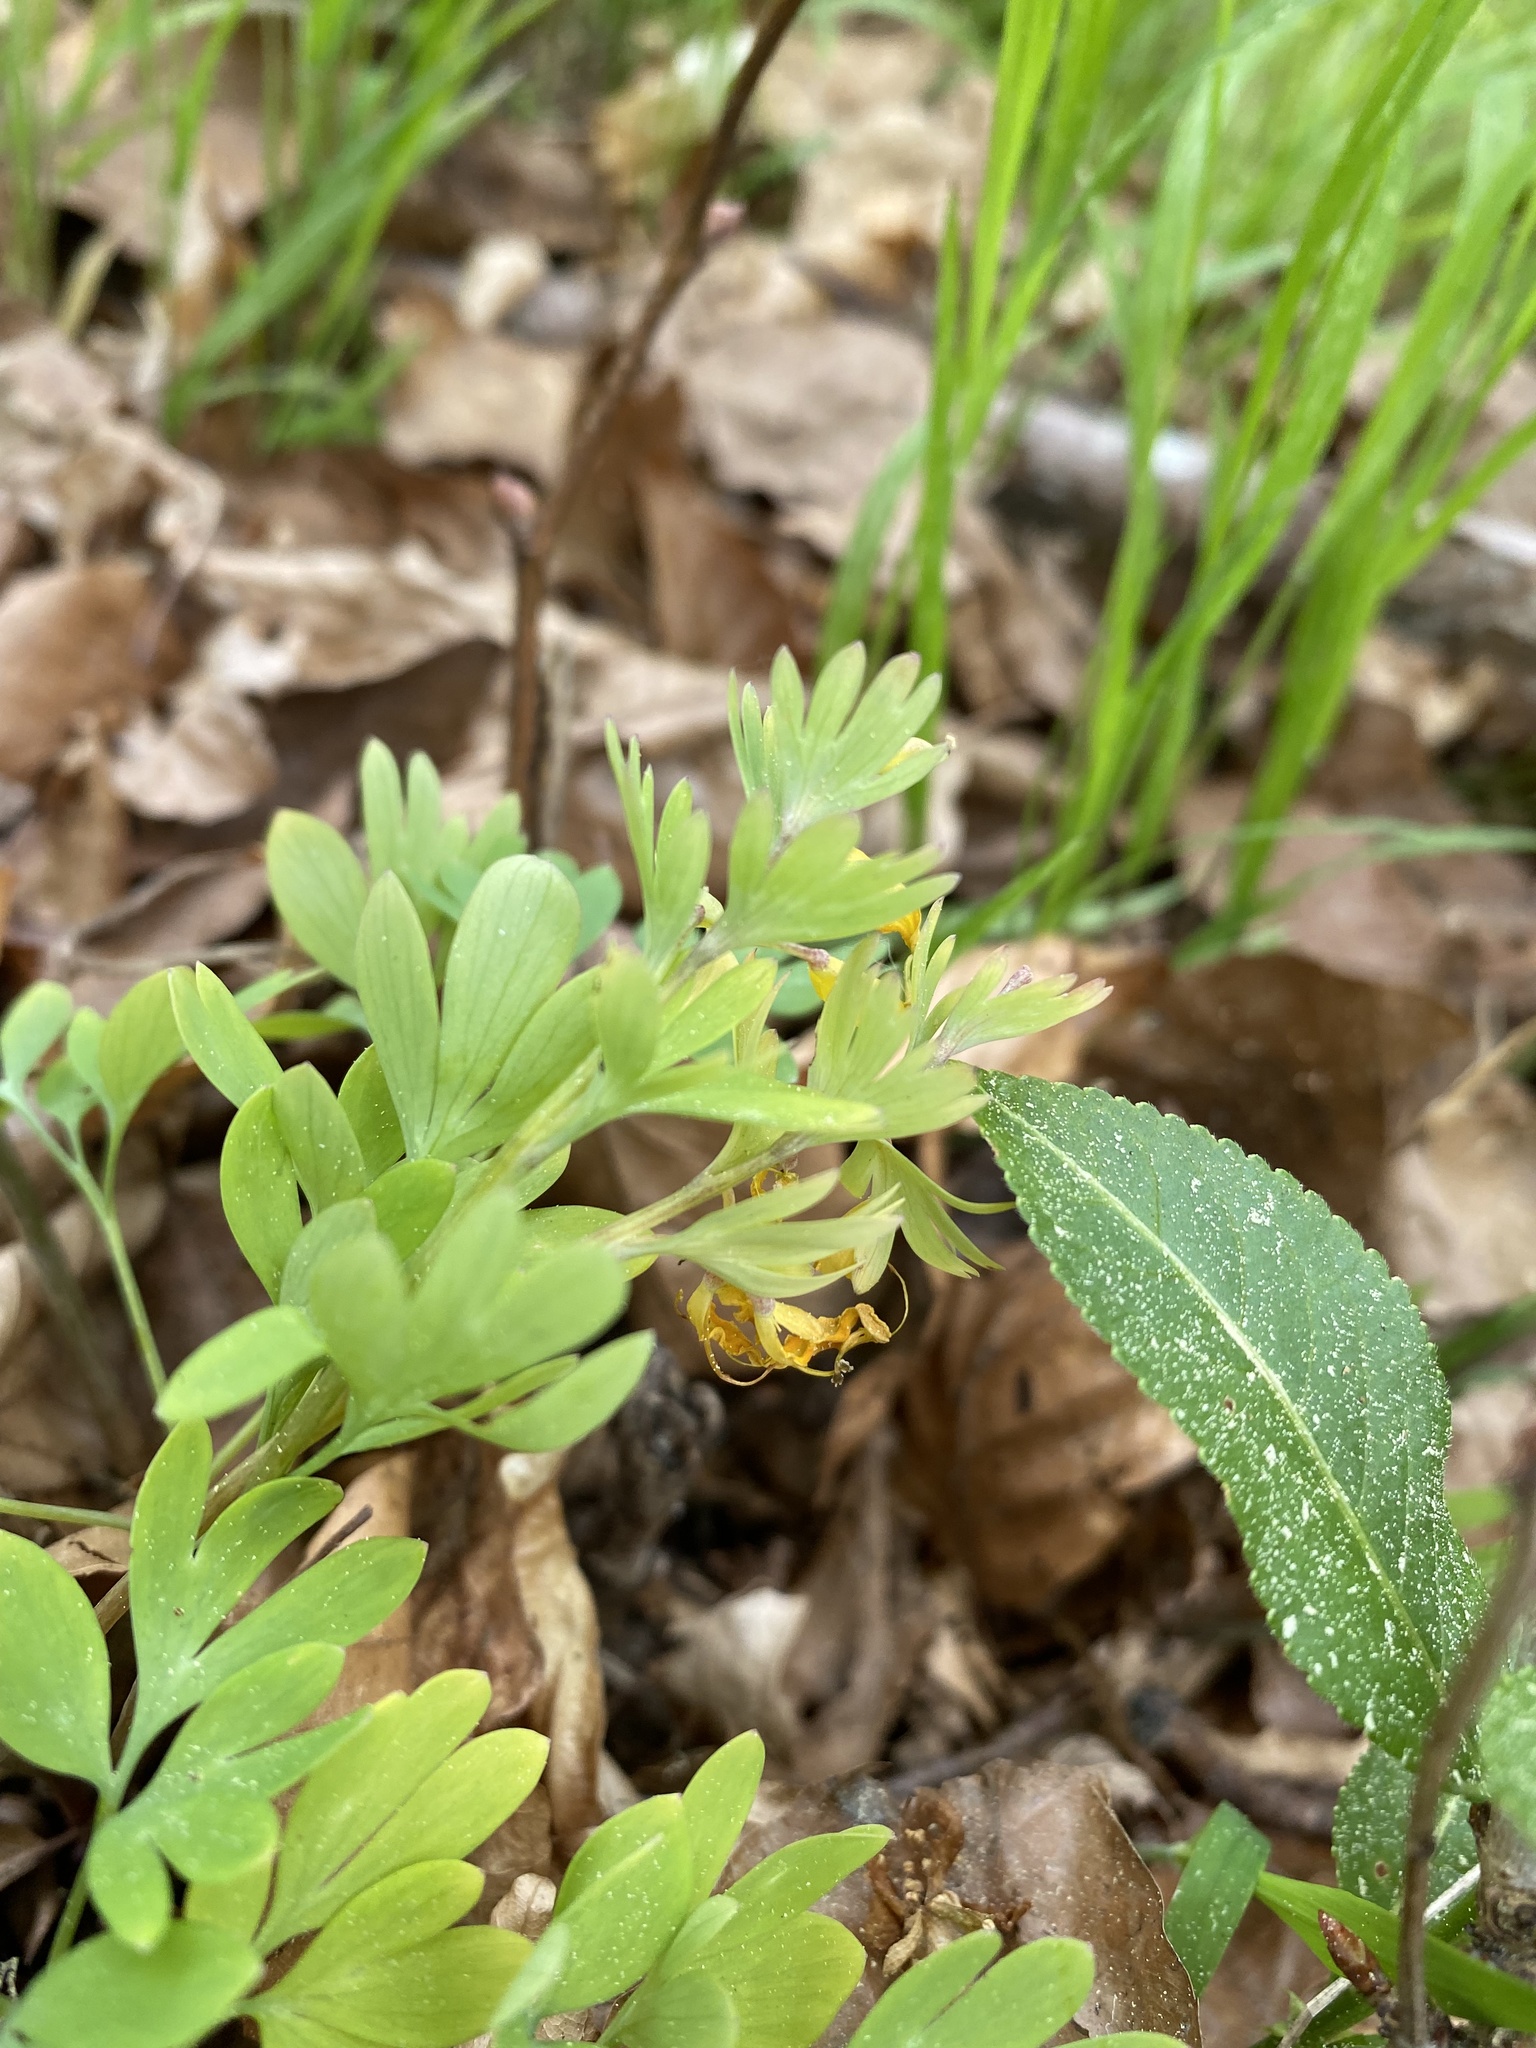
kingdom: Plantae
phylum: Tracheophyta
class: Magnoliopsida
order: Ranunculales
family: Papaveraceae
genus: Corydalis
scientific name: Corydalis solida
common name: Bird-in-a-bush
